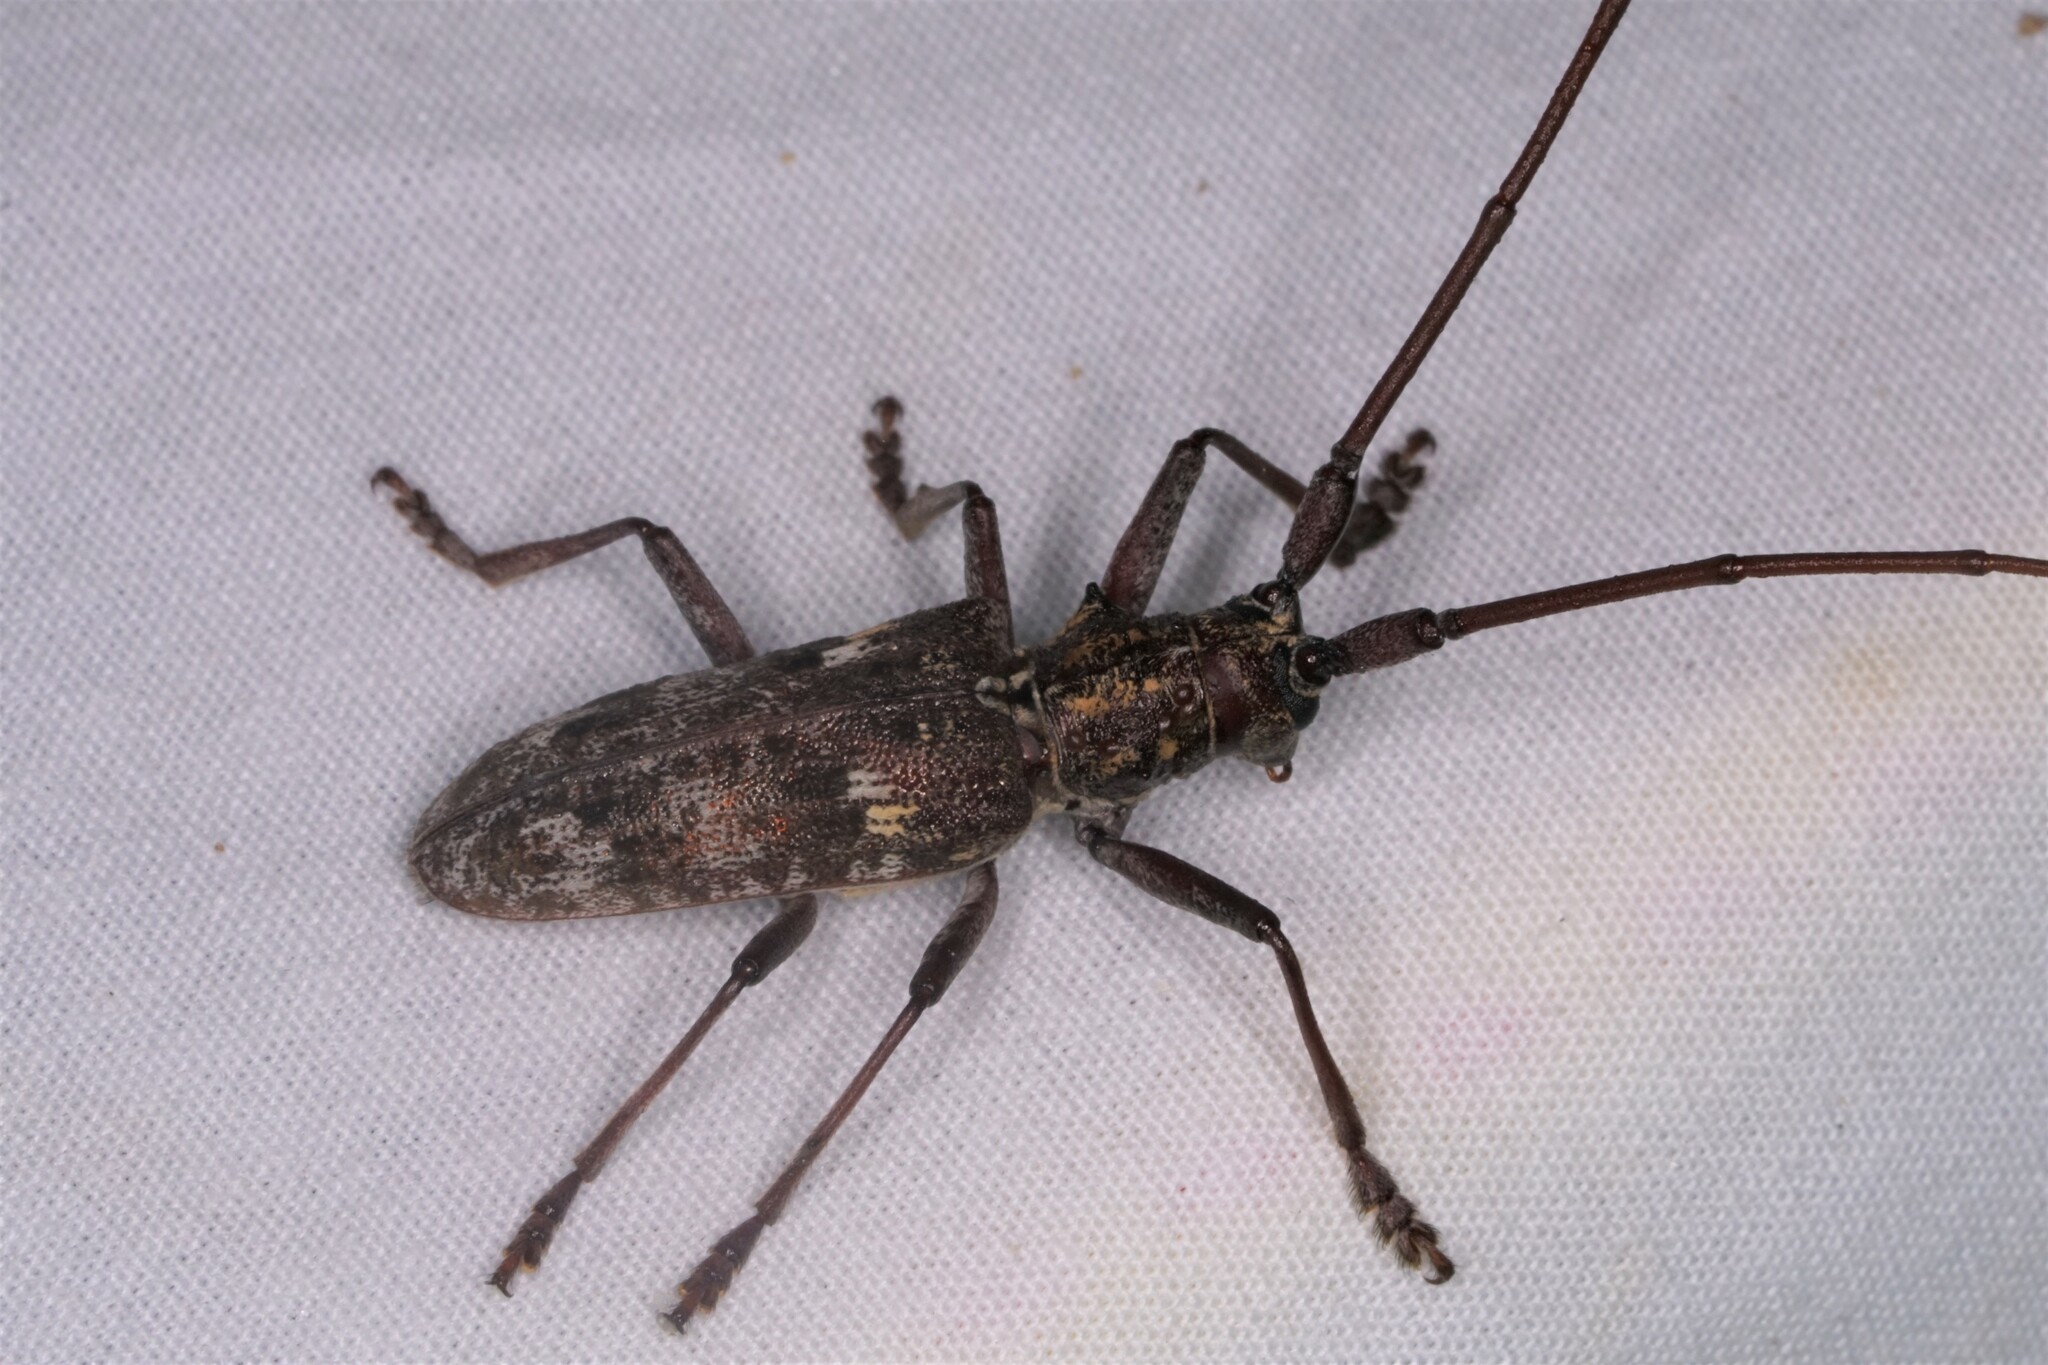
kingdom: Animalia
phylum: Arthropoda
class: Insecta
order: Coleoptera
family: Cerambycidae
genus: Monochamus
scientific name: Monochamus carolinensis
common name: Carolina pine sawyer
